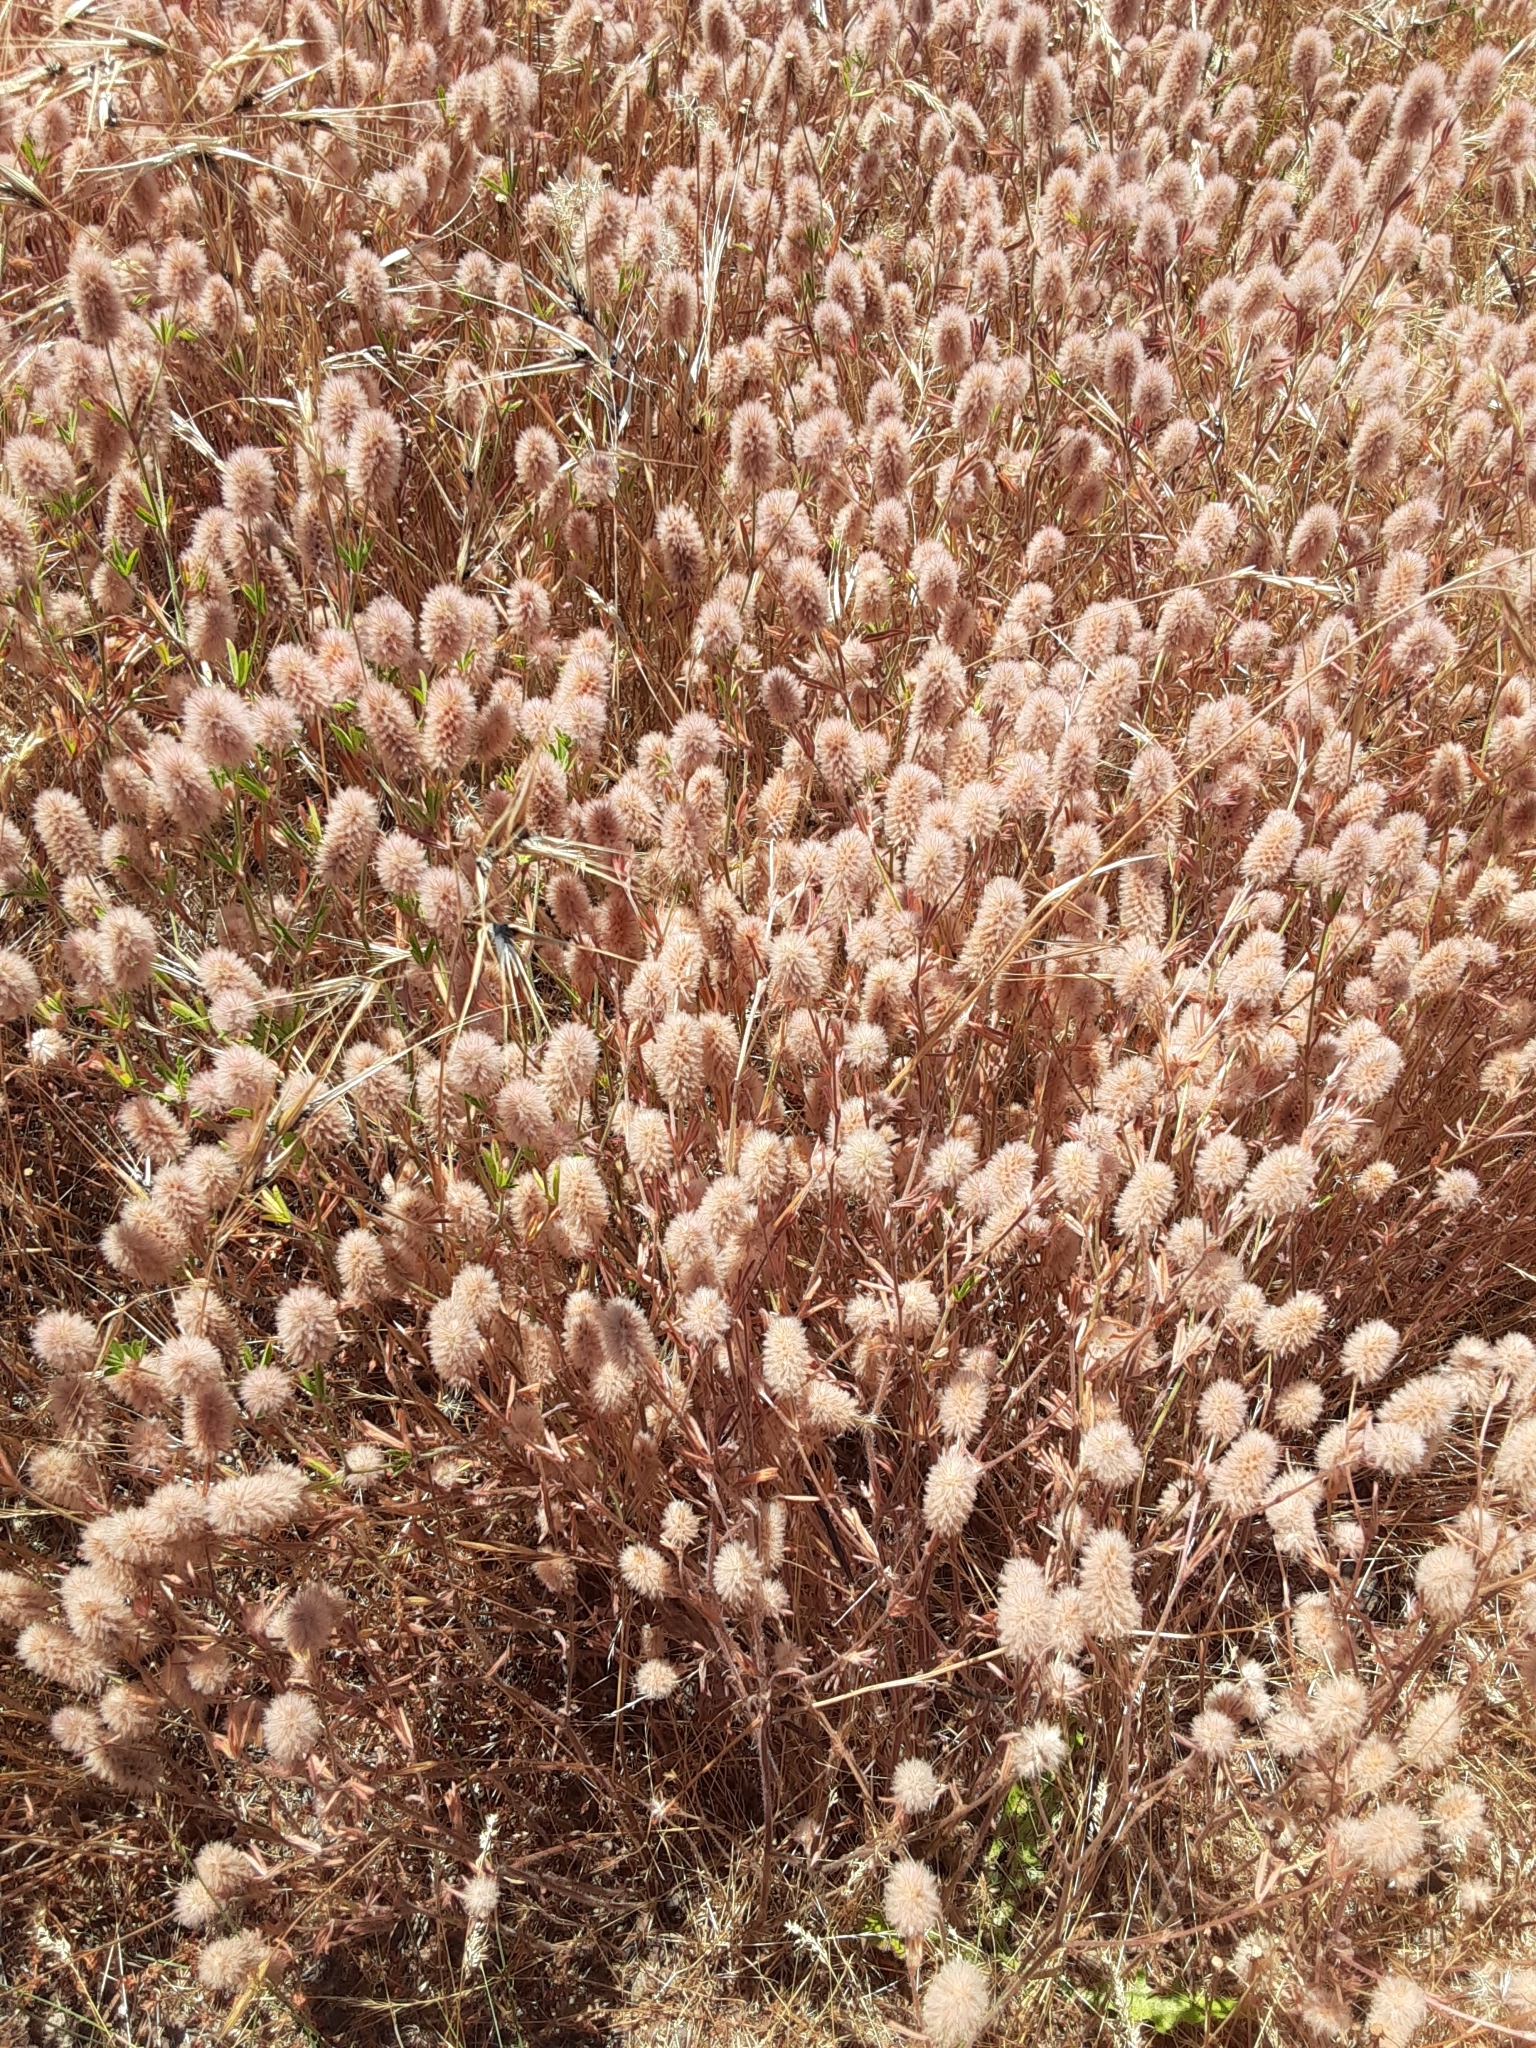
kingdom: Plantae
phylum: Tracheophyta
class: Magnoliopsida
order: Fabales
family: Fabaceae
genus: Trifolium
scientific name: Trifolium arvense
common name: Hare's-foot clover
